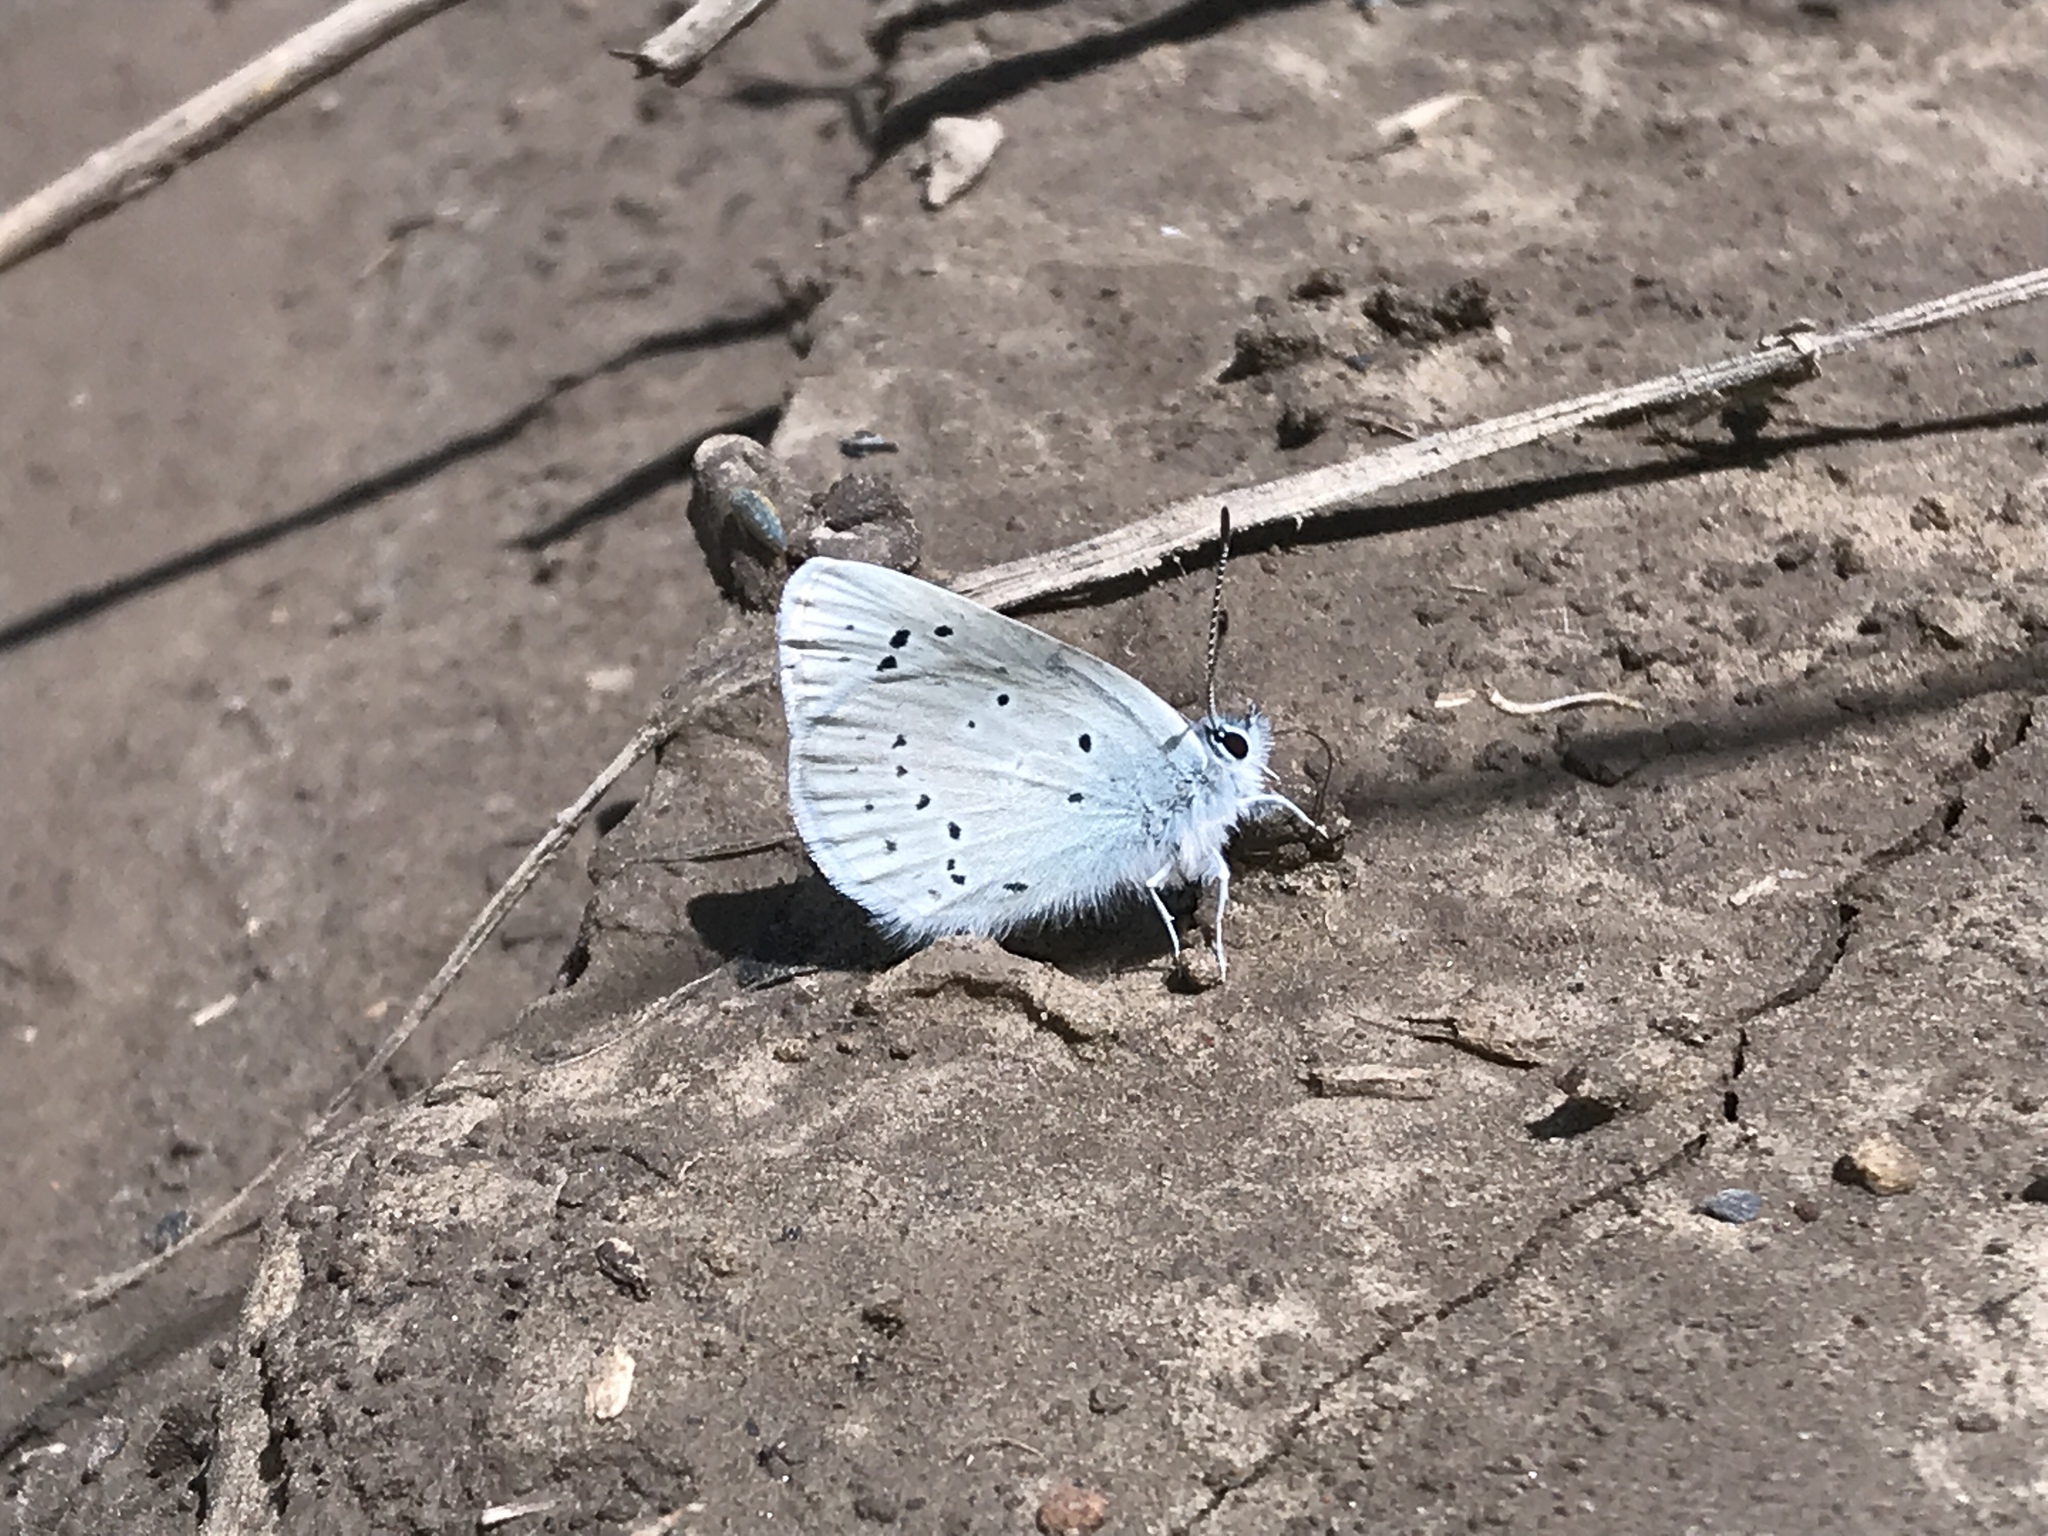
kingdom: Animalia
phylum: Arthropoda
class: Insecta
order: Lepidoptera
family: Lycaenidae
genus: Icaricia
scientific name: Icaricia icarioides
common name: Boisduval's blue
